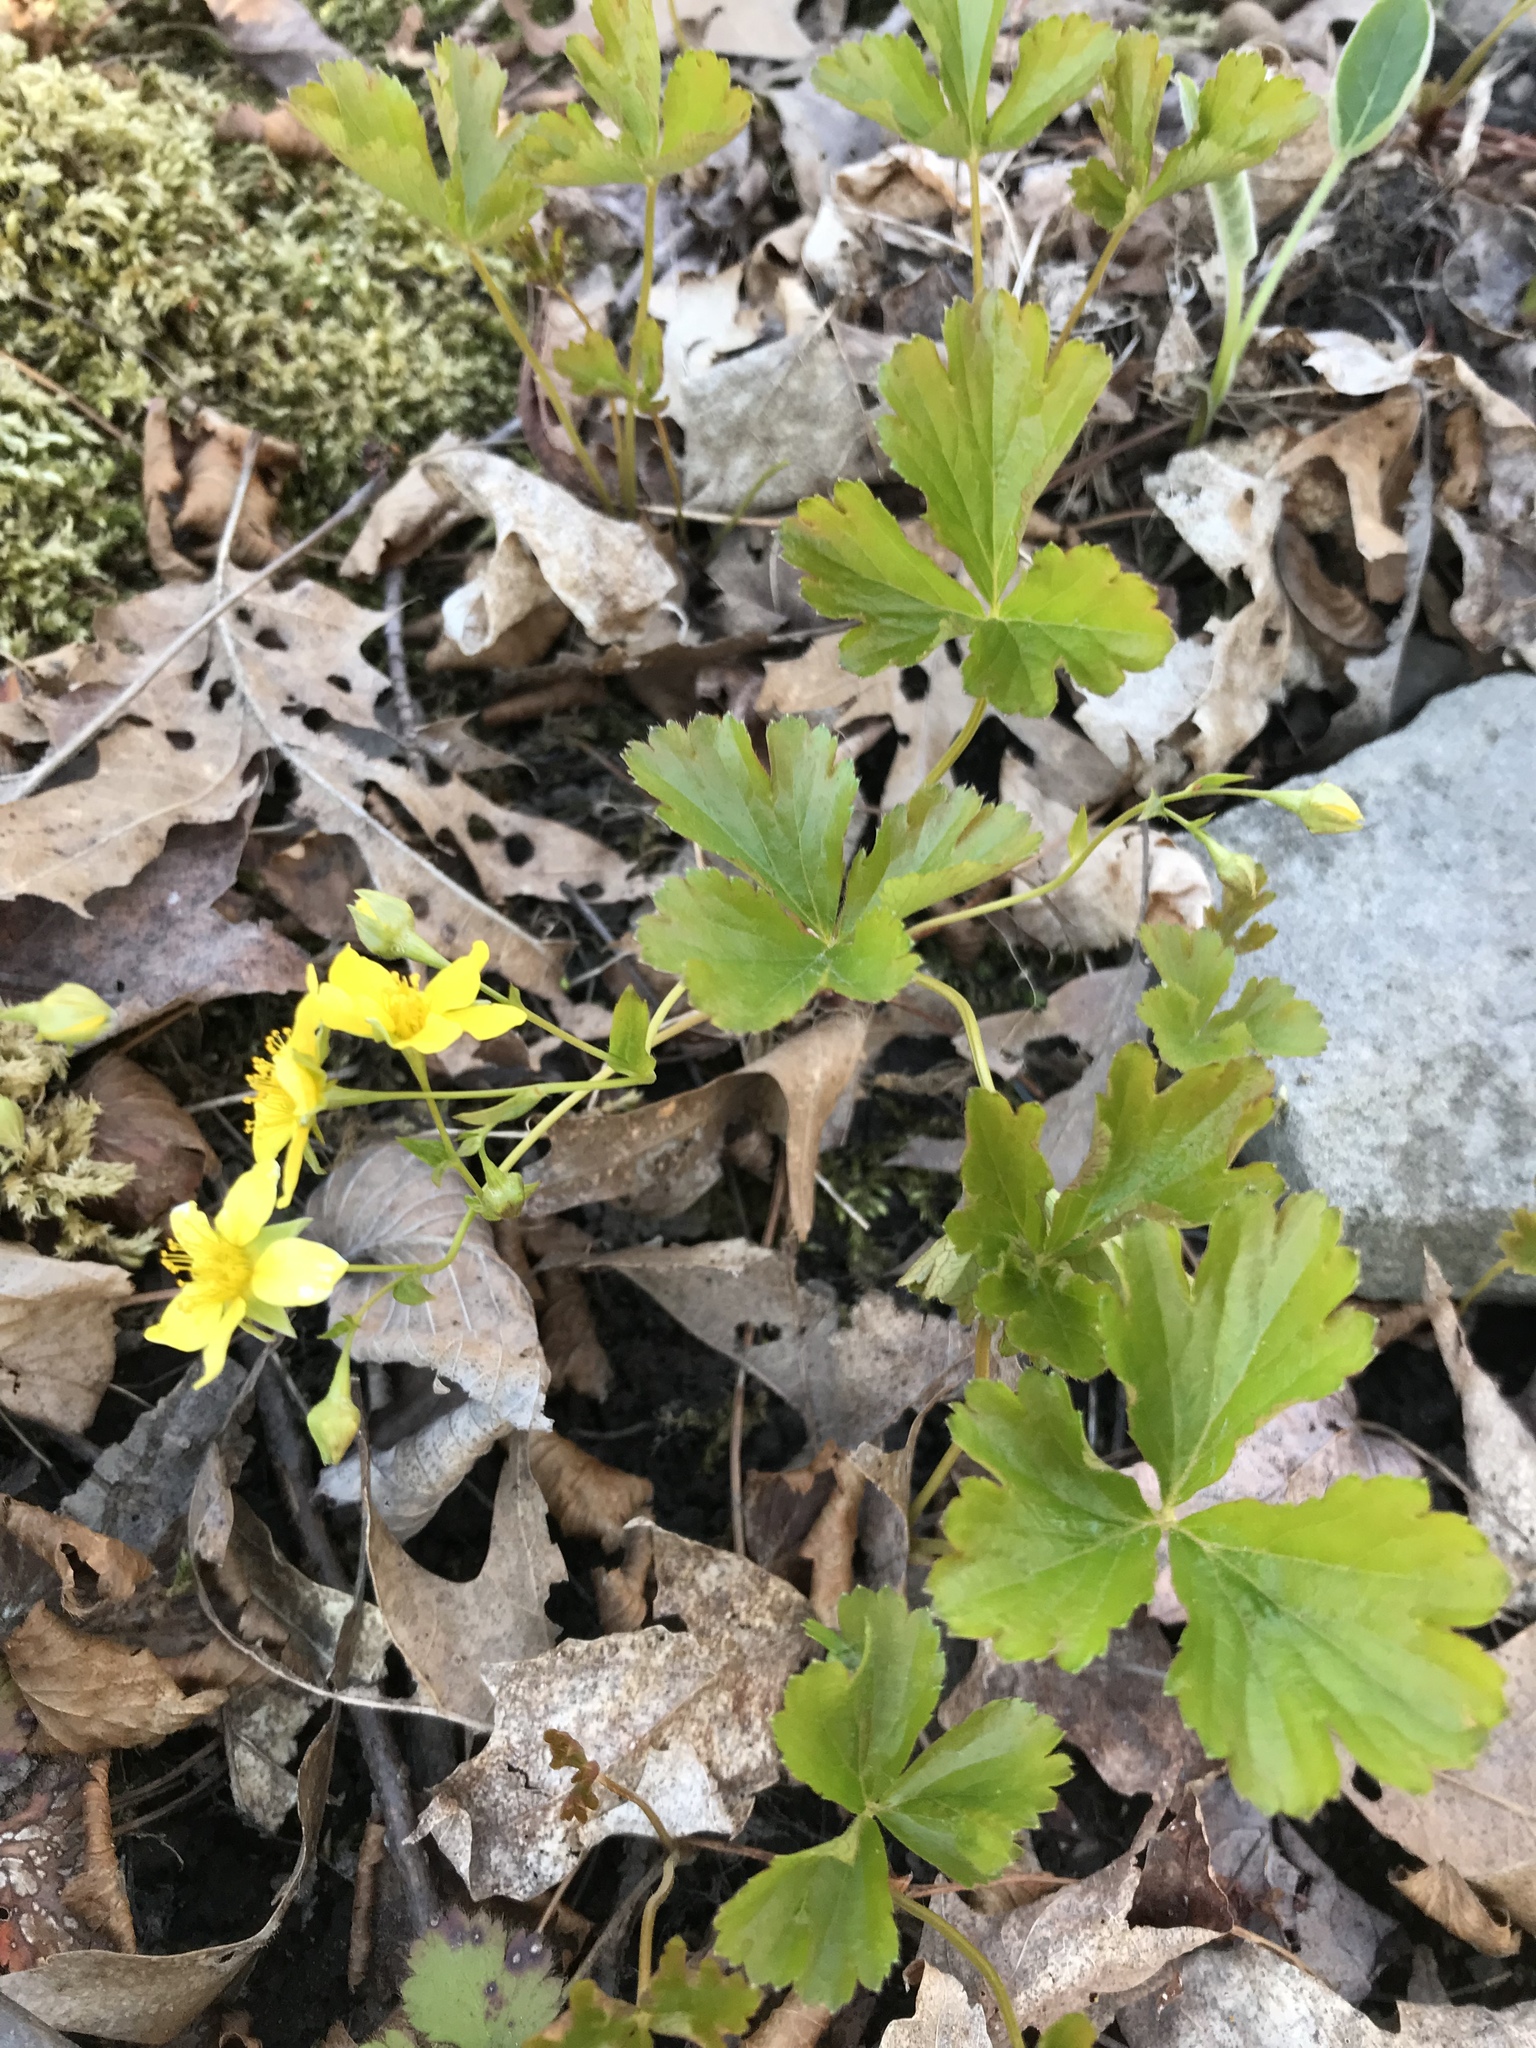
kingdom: Plantae
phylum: Tracheophyta
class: Magnoliopsida
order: Rosales
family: Rosaceae
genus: Geum
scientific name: Geum fragarioides
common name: Appalachian barren strawberry
